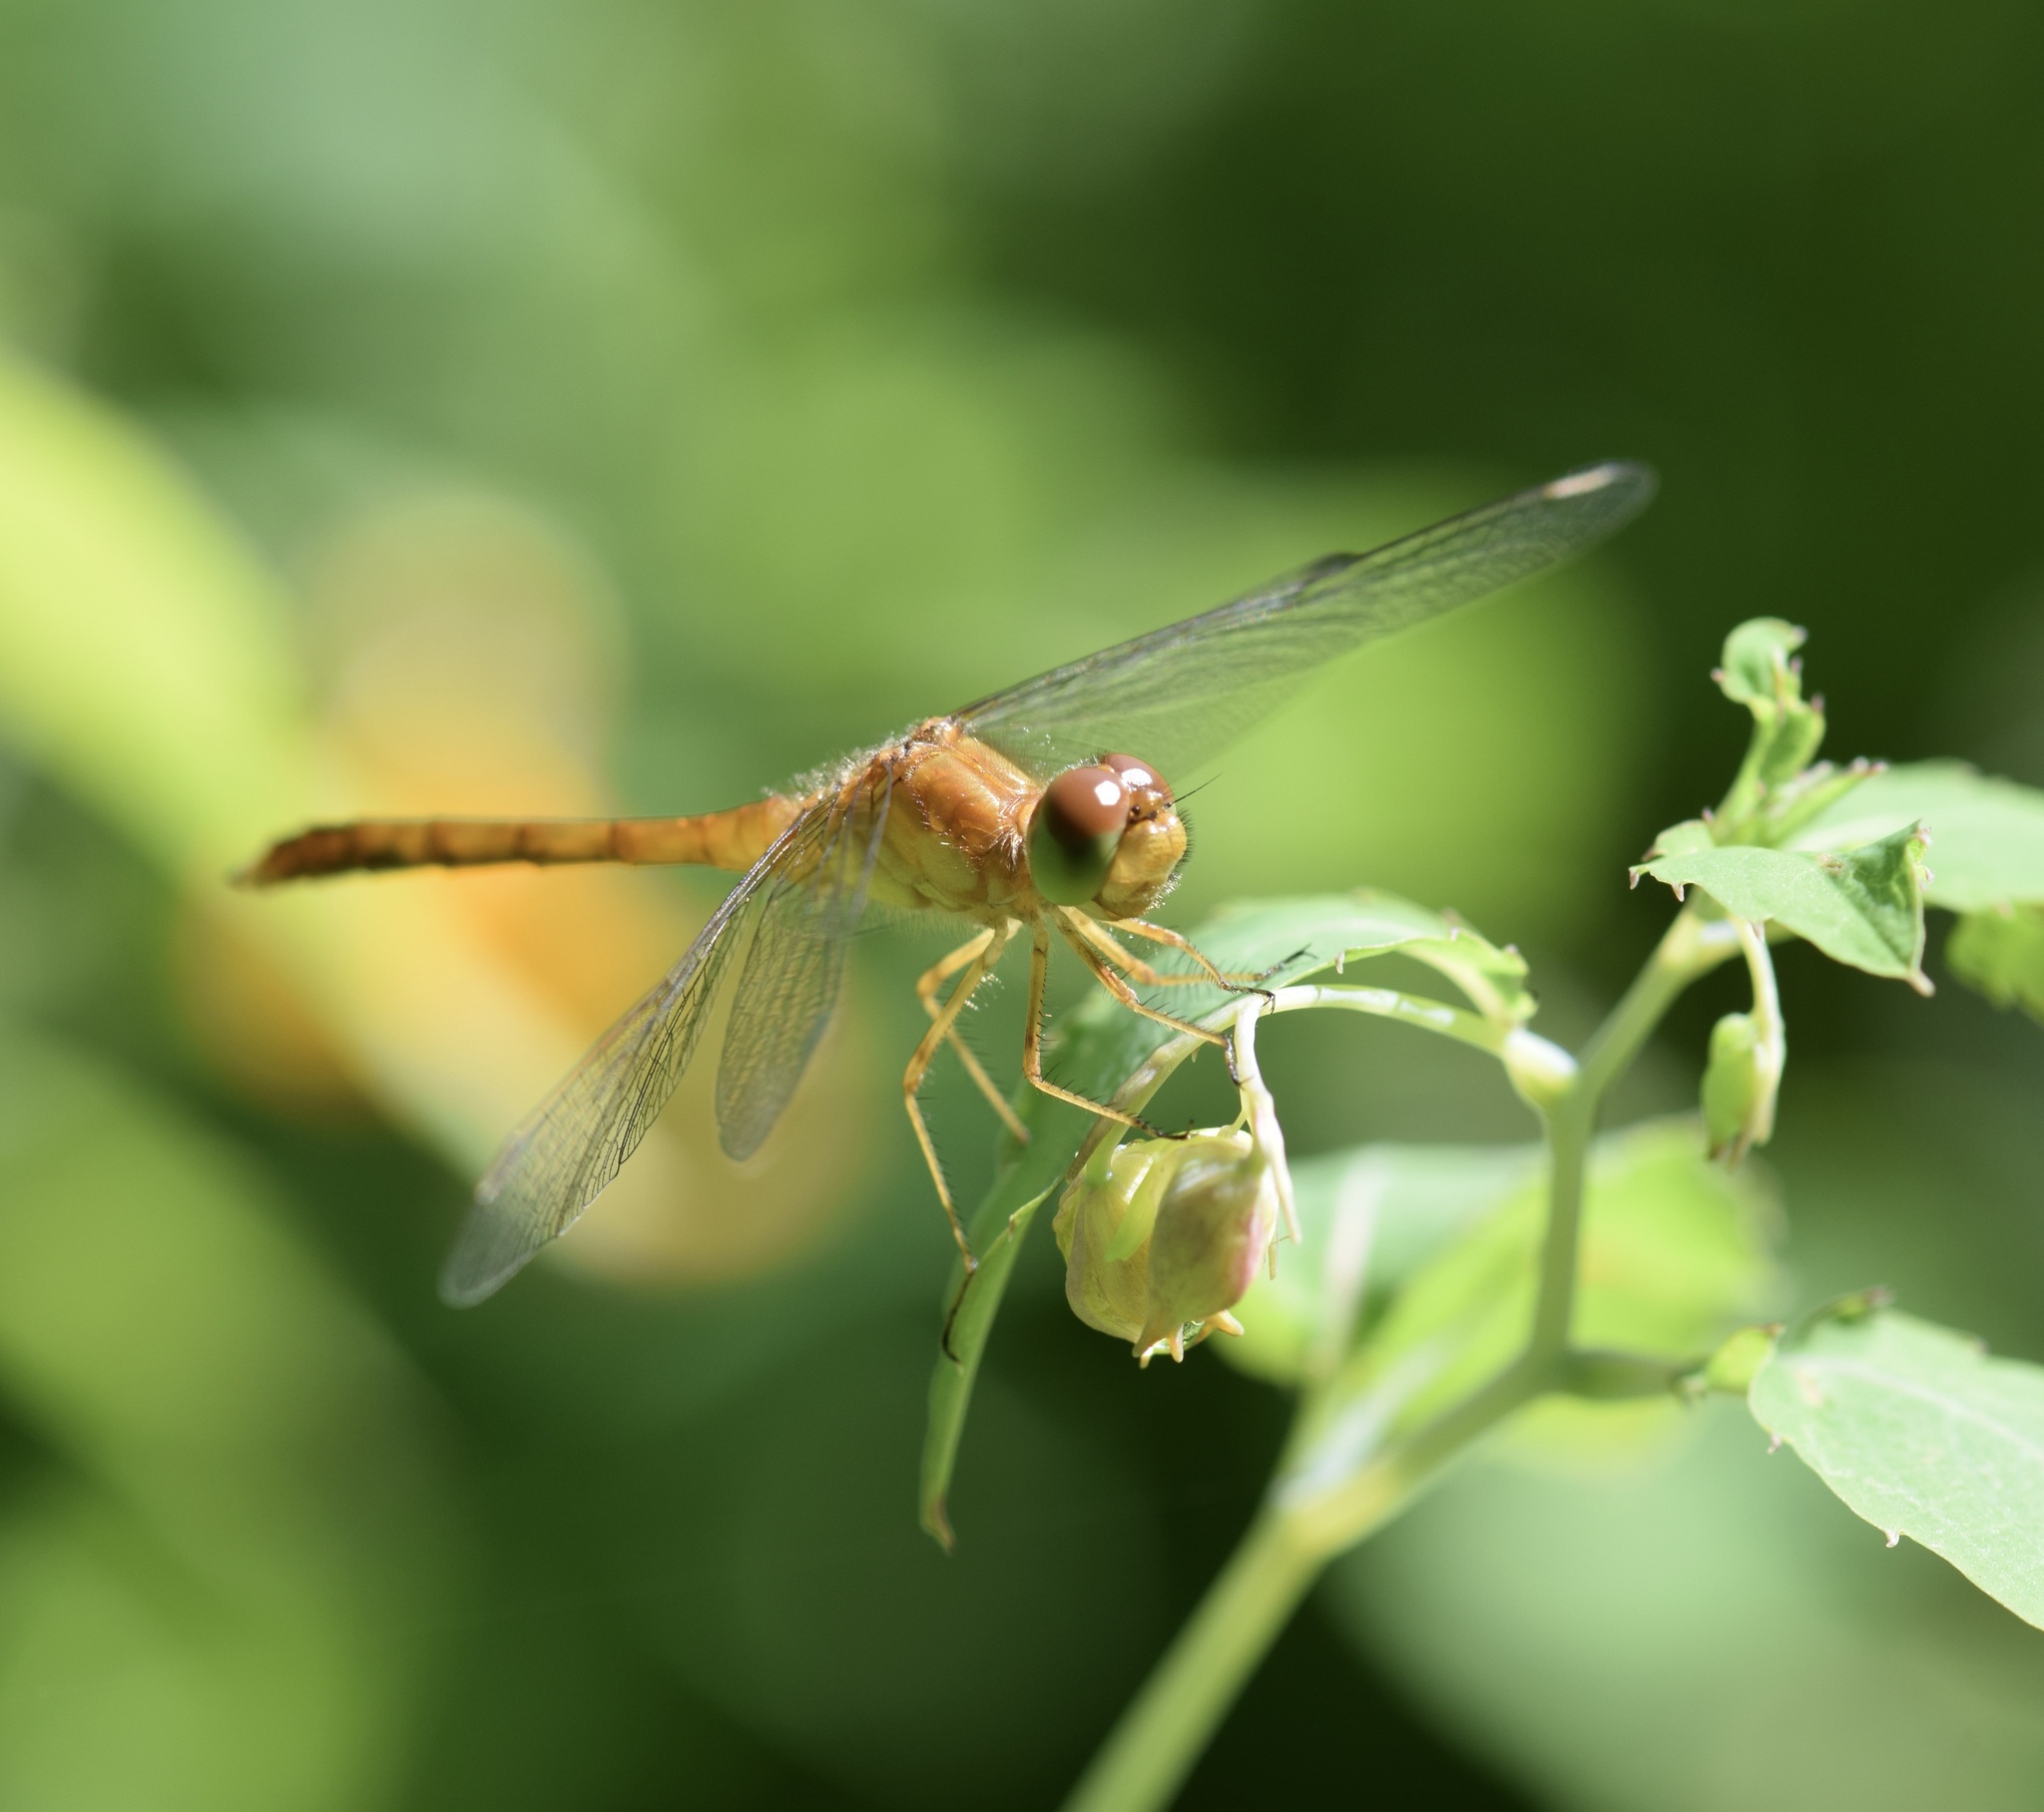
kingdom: Animalia
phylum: Arthropoda
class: Insecta
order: Odonata
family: Libellulidae
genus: Sympetrum
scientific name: Sympetrum vicinum
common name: Autumn meadowhawk
